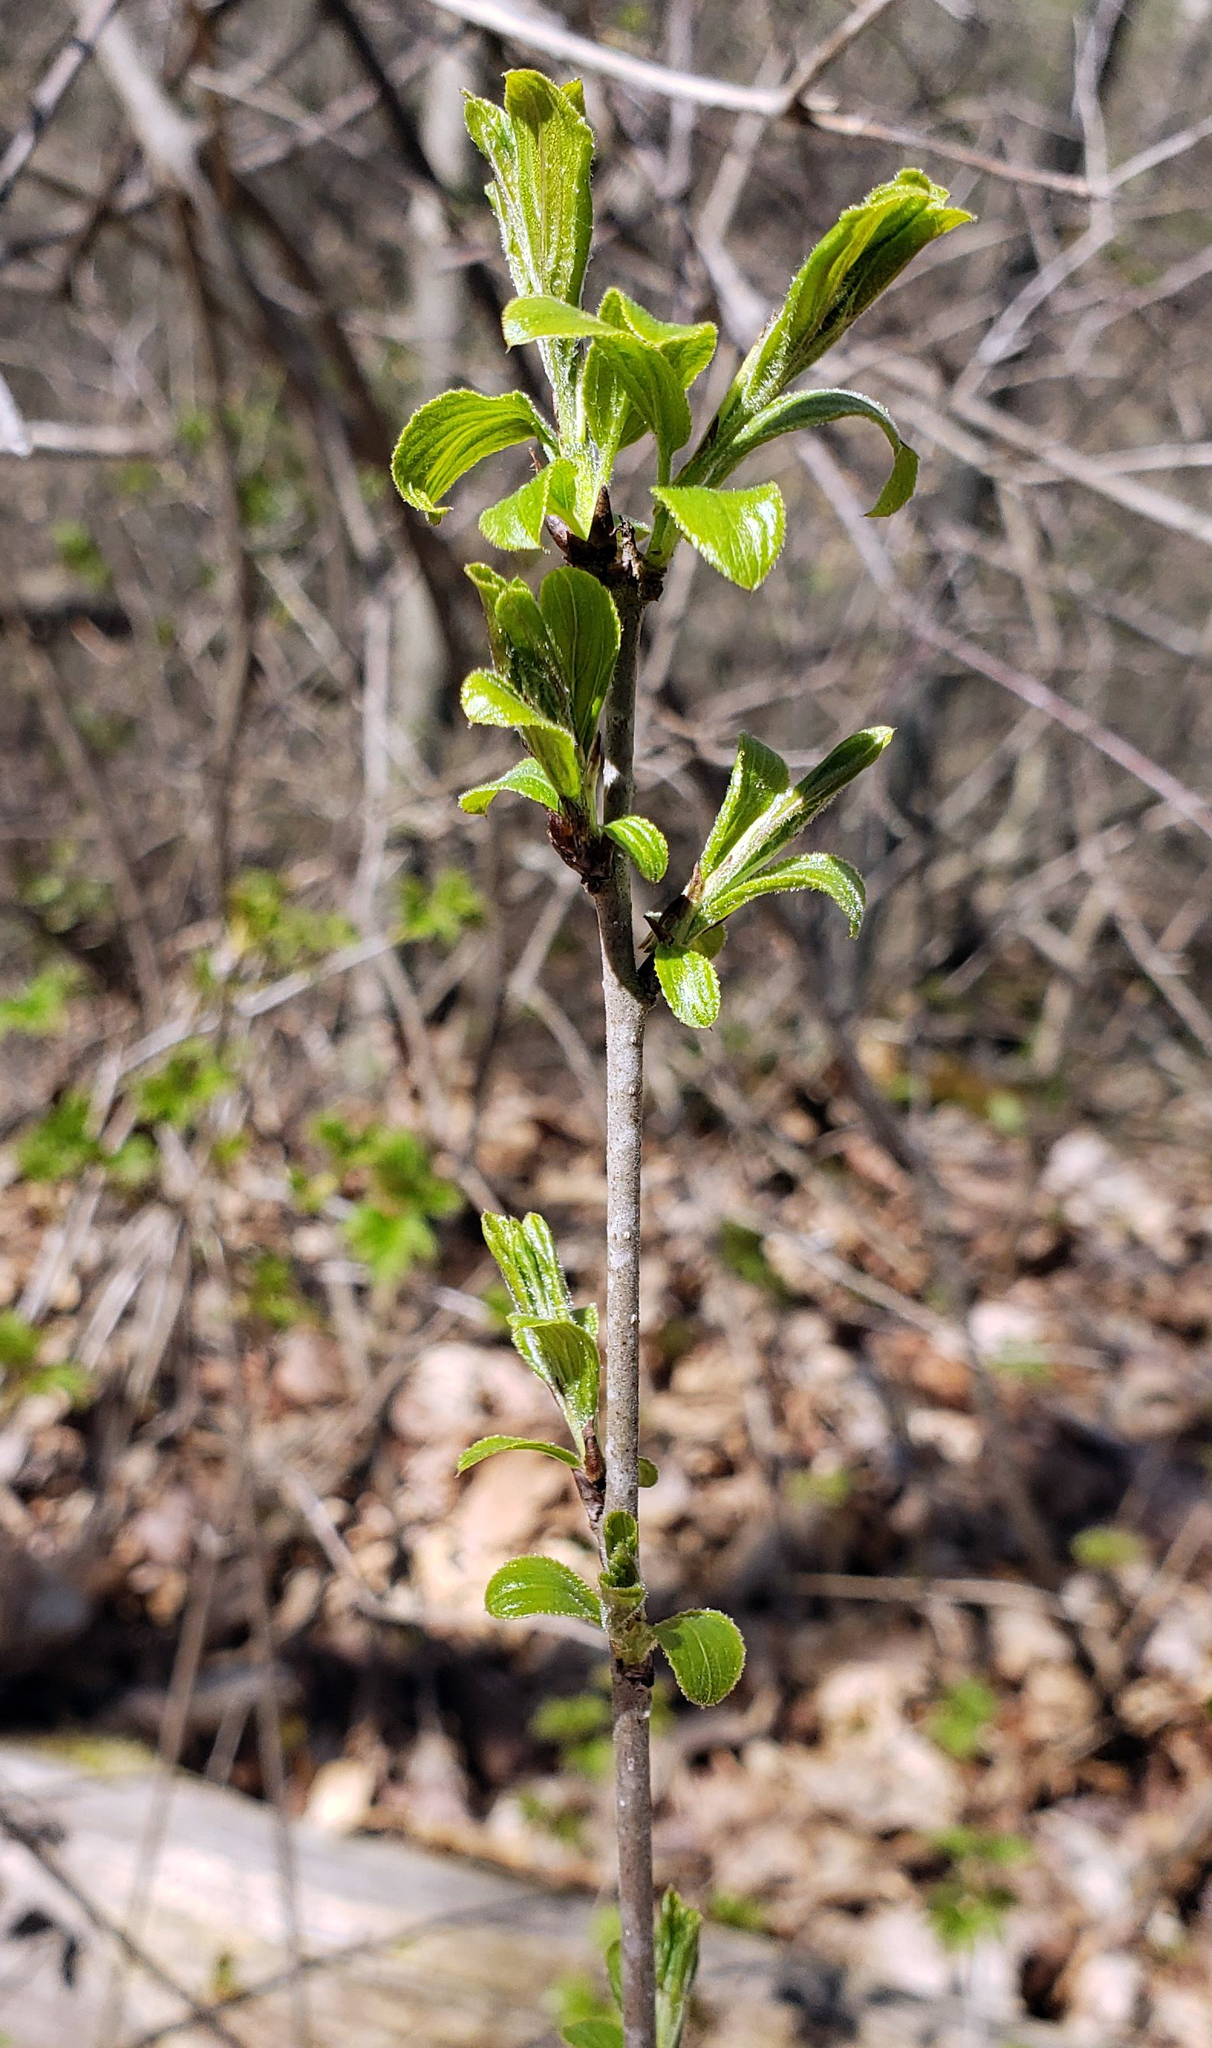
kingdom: Plantae
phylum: Tracheophyta
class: Magnoliopsida
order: Rosales
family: Rhamnaceae
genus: Rhamnus
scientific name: Rhamnus cathartica
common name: Common buckthorn
